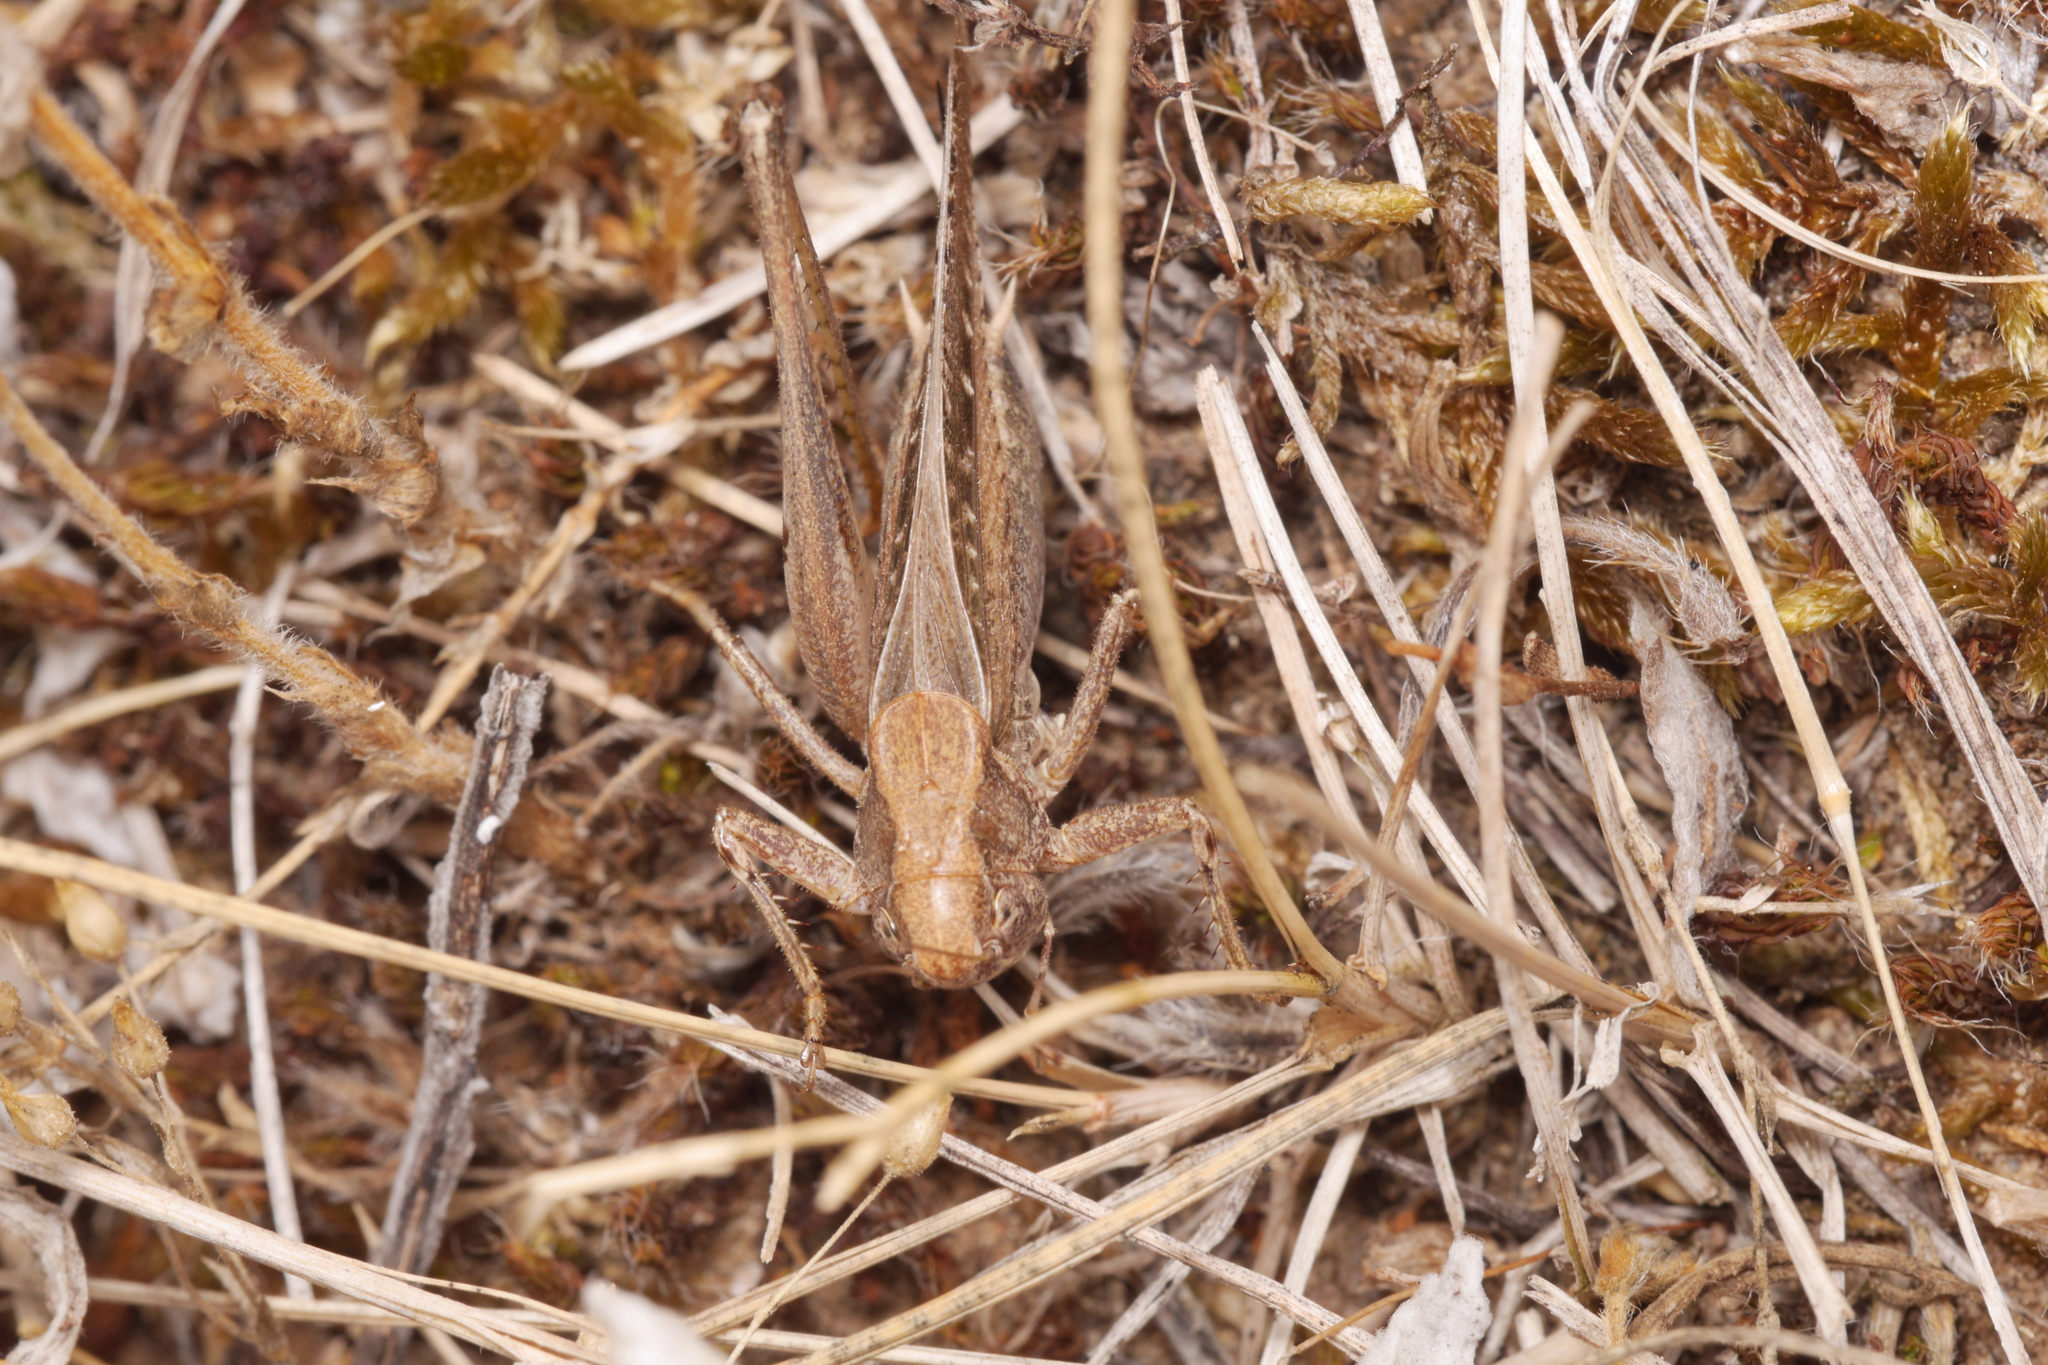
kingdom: Animalia
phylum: Arthropoda
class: Insecta
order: Orthoptera
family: Tettigoniidae
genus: Platycleis
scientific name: Platycleis albopunctata
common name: Grey bush-cricket
